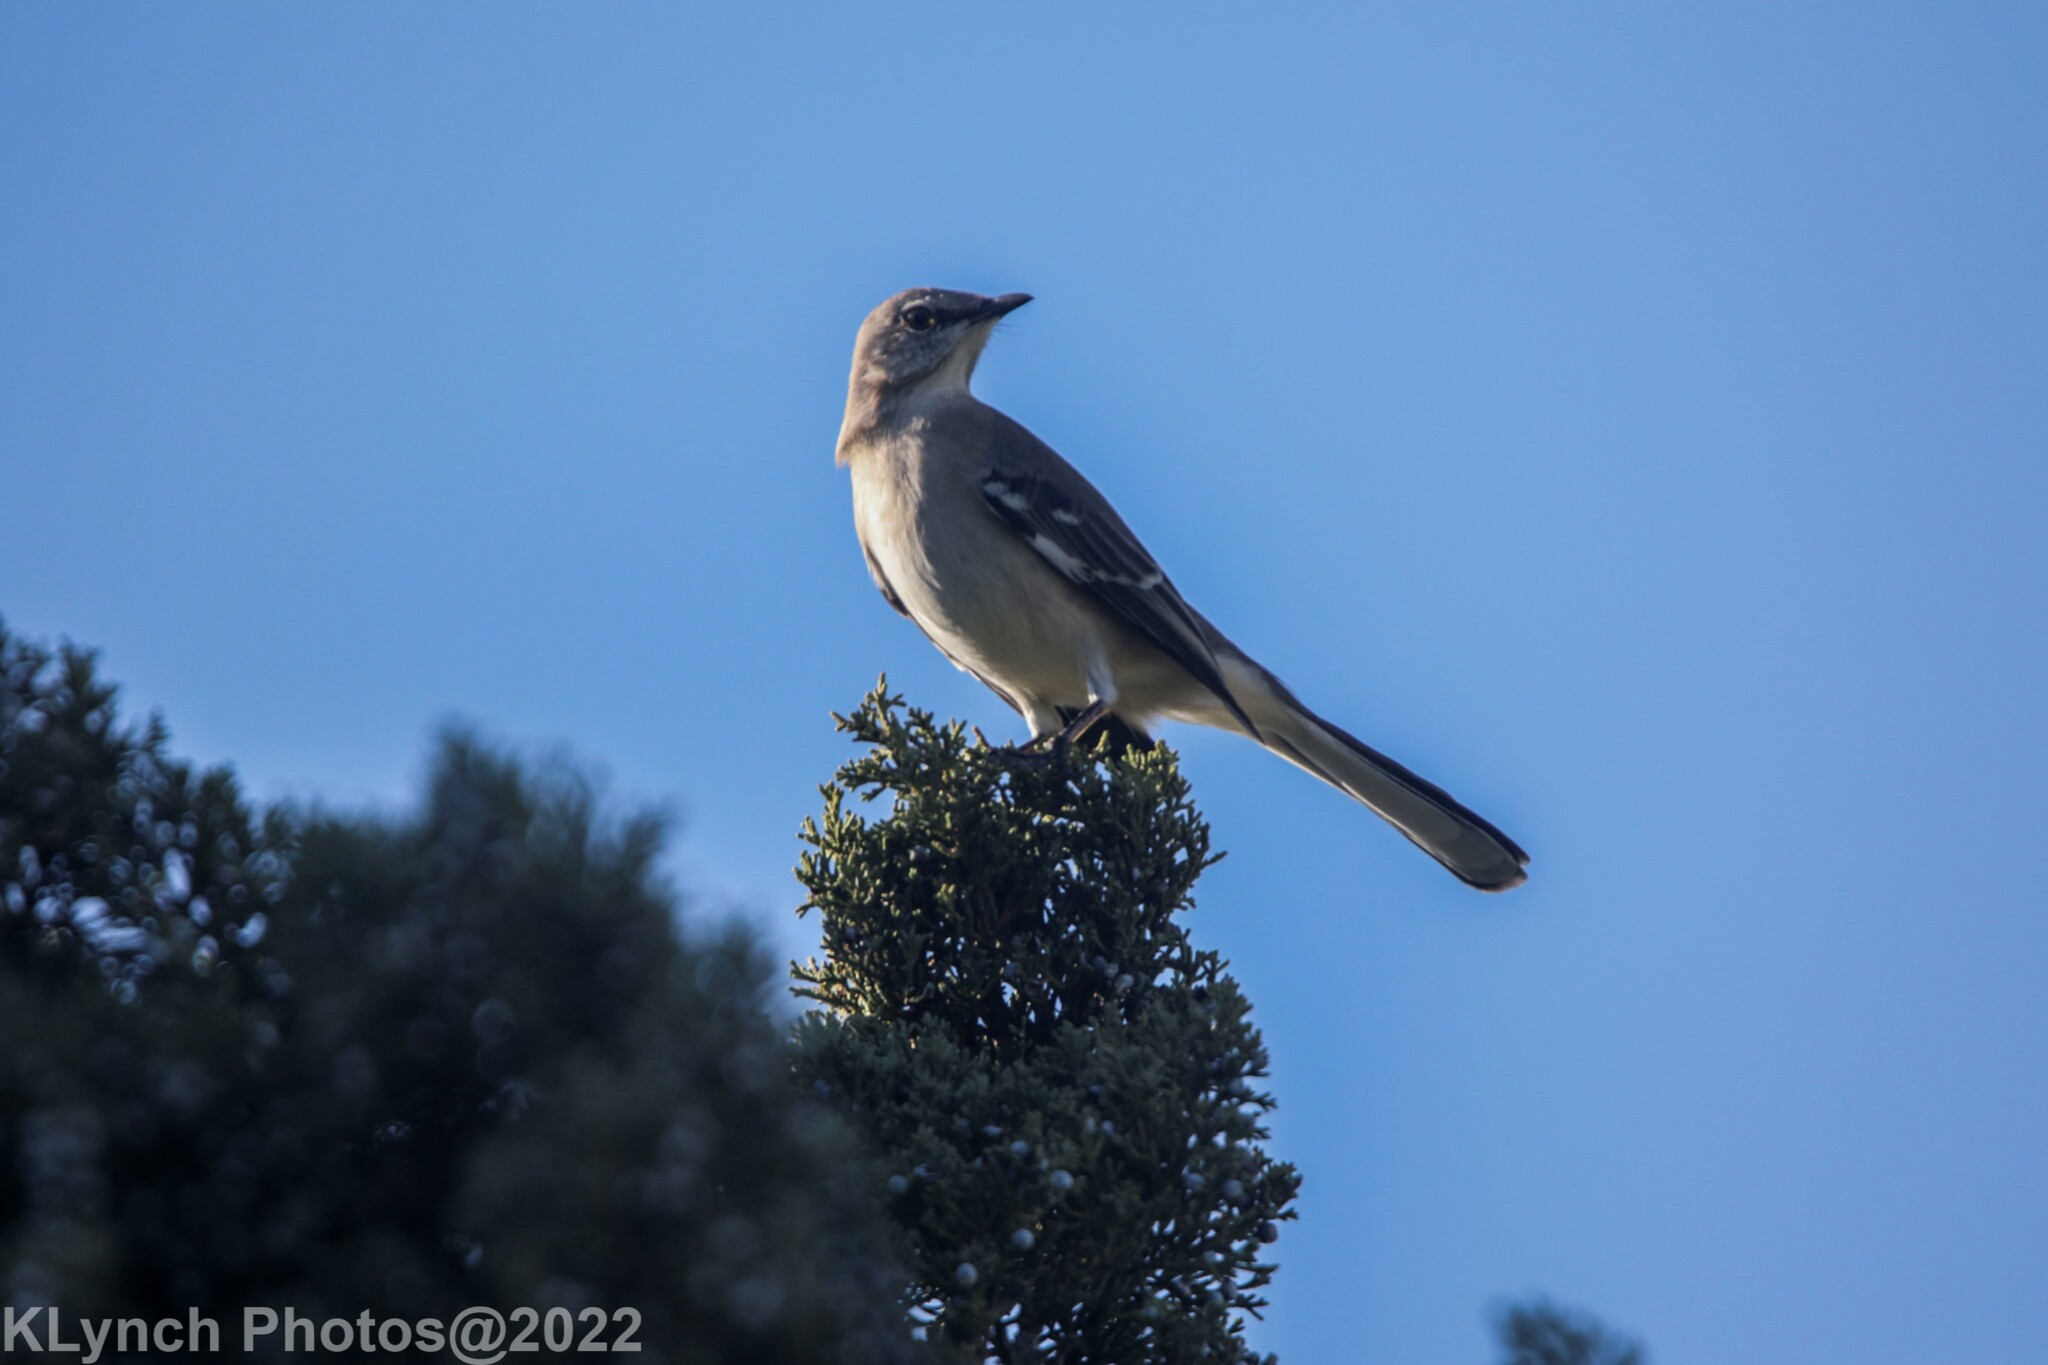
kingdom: Animalia
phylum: Chordata
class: Aves
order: Passeriformes
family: Mimidae
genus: Mimus
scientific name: Mimus polyglottos
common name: Northern mockingbird
